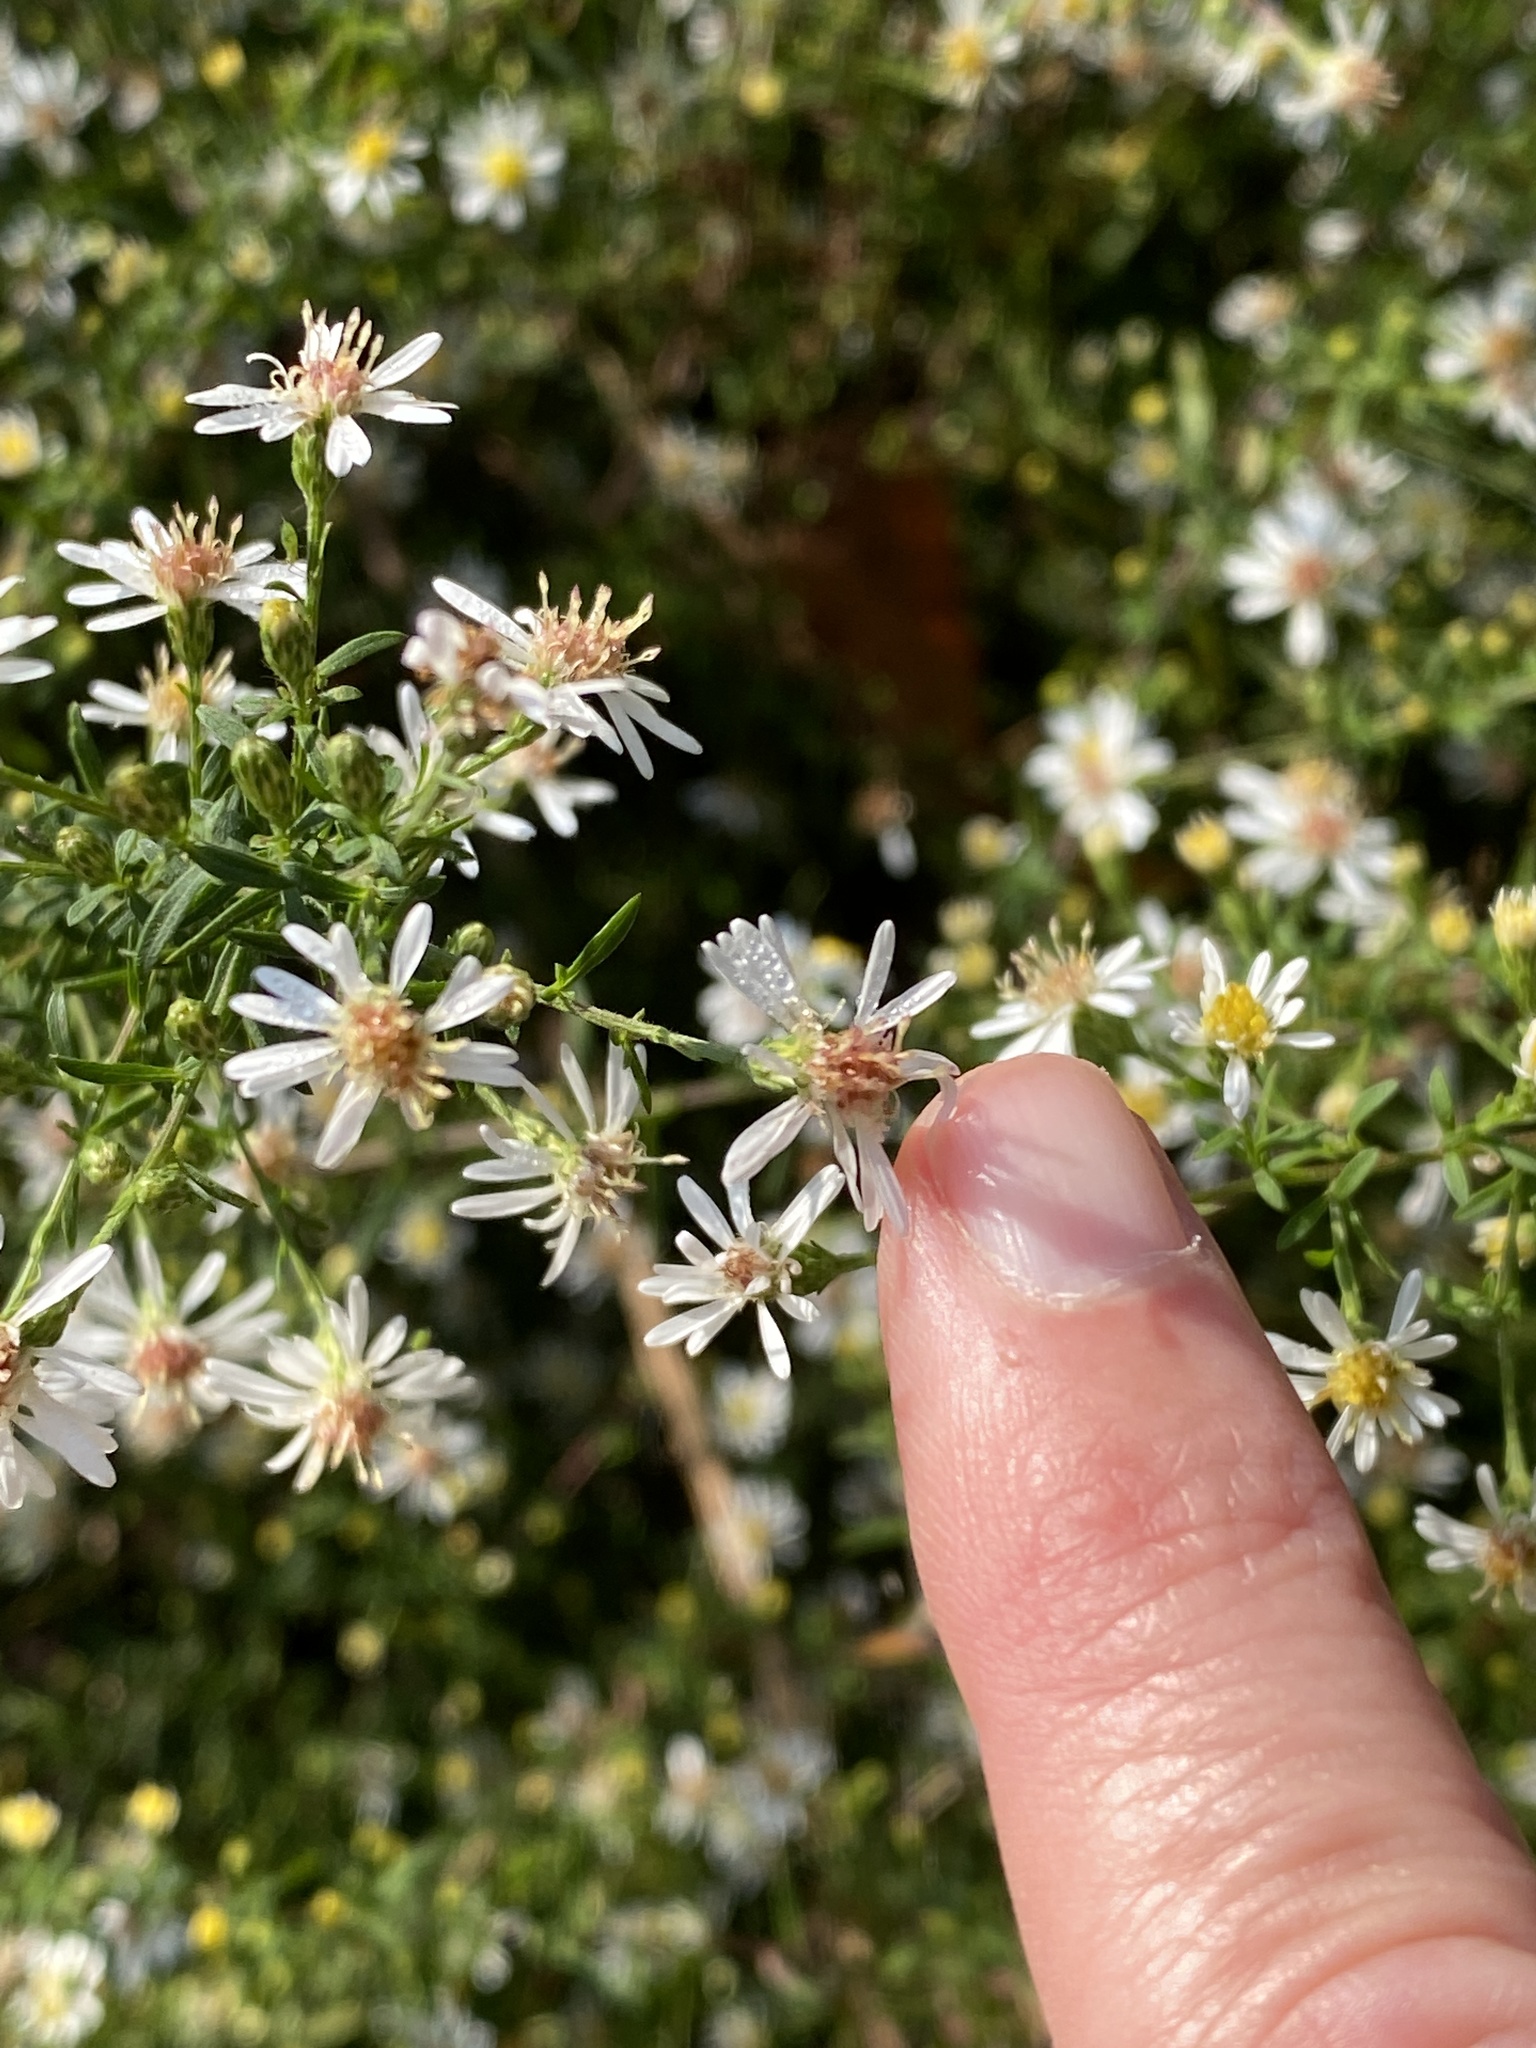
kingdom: Plantae
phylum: Tracheophyta
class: Magnoliopsida
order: Asterales
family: Asteraceae
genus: Symphyotrichum
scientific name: Symphyotrichum lateriflorum
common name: Calico aster
